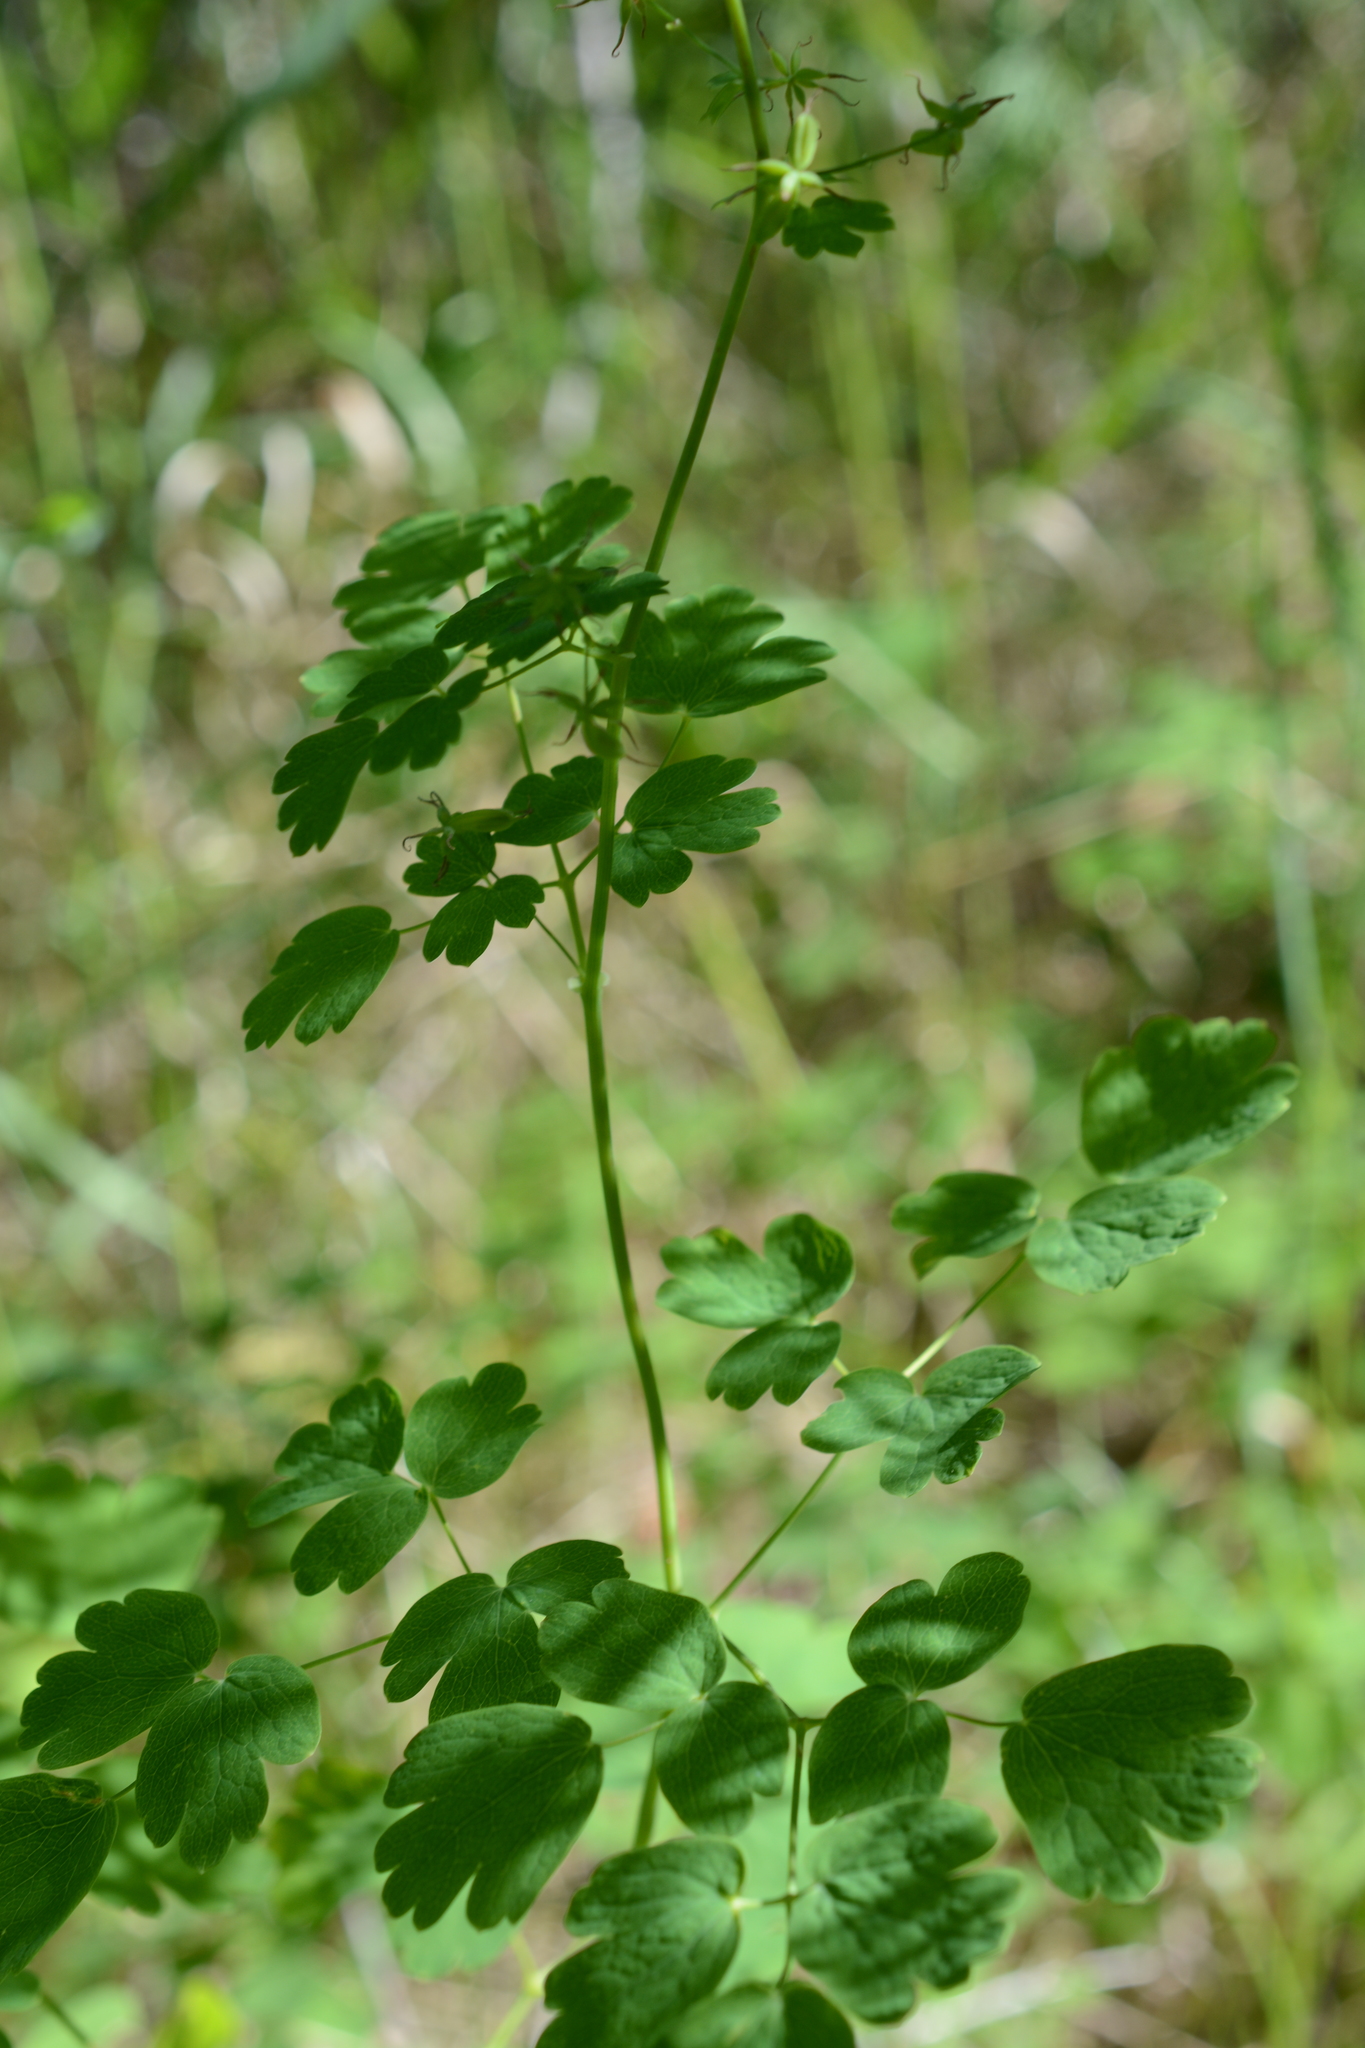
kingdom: Plantae
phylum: Tracheophyta
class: Magnoliopsida
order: Ranunculales
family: Ranunculaceae
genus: Thalictrum
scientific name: Thalictrum occidentale
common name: Western meadow-rue
